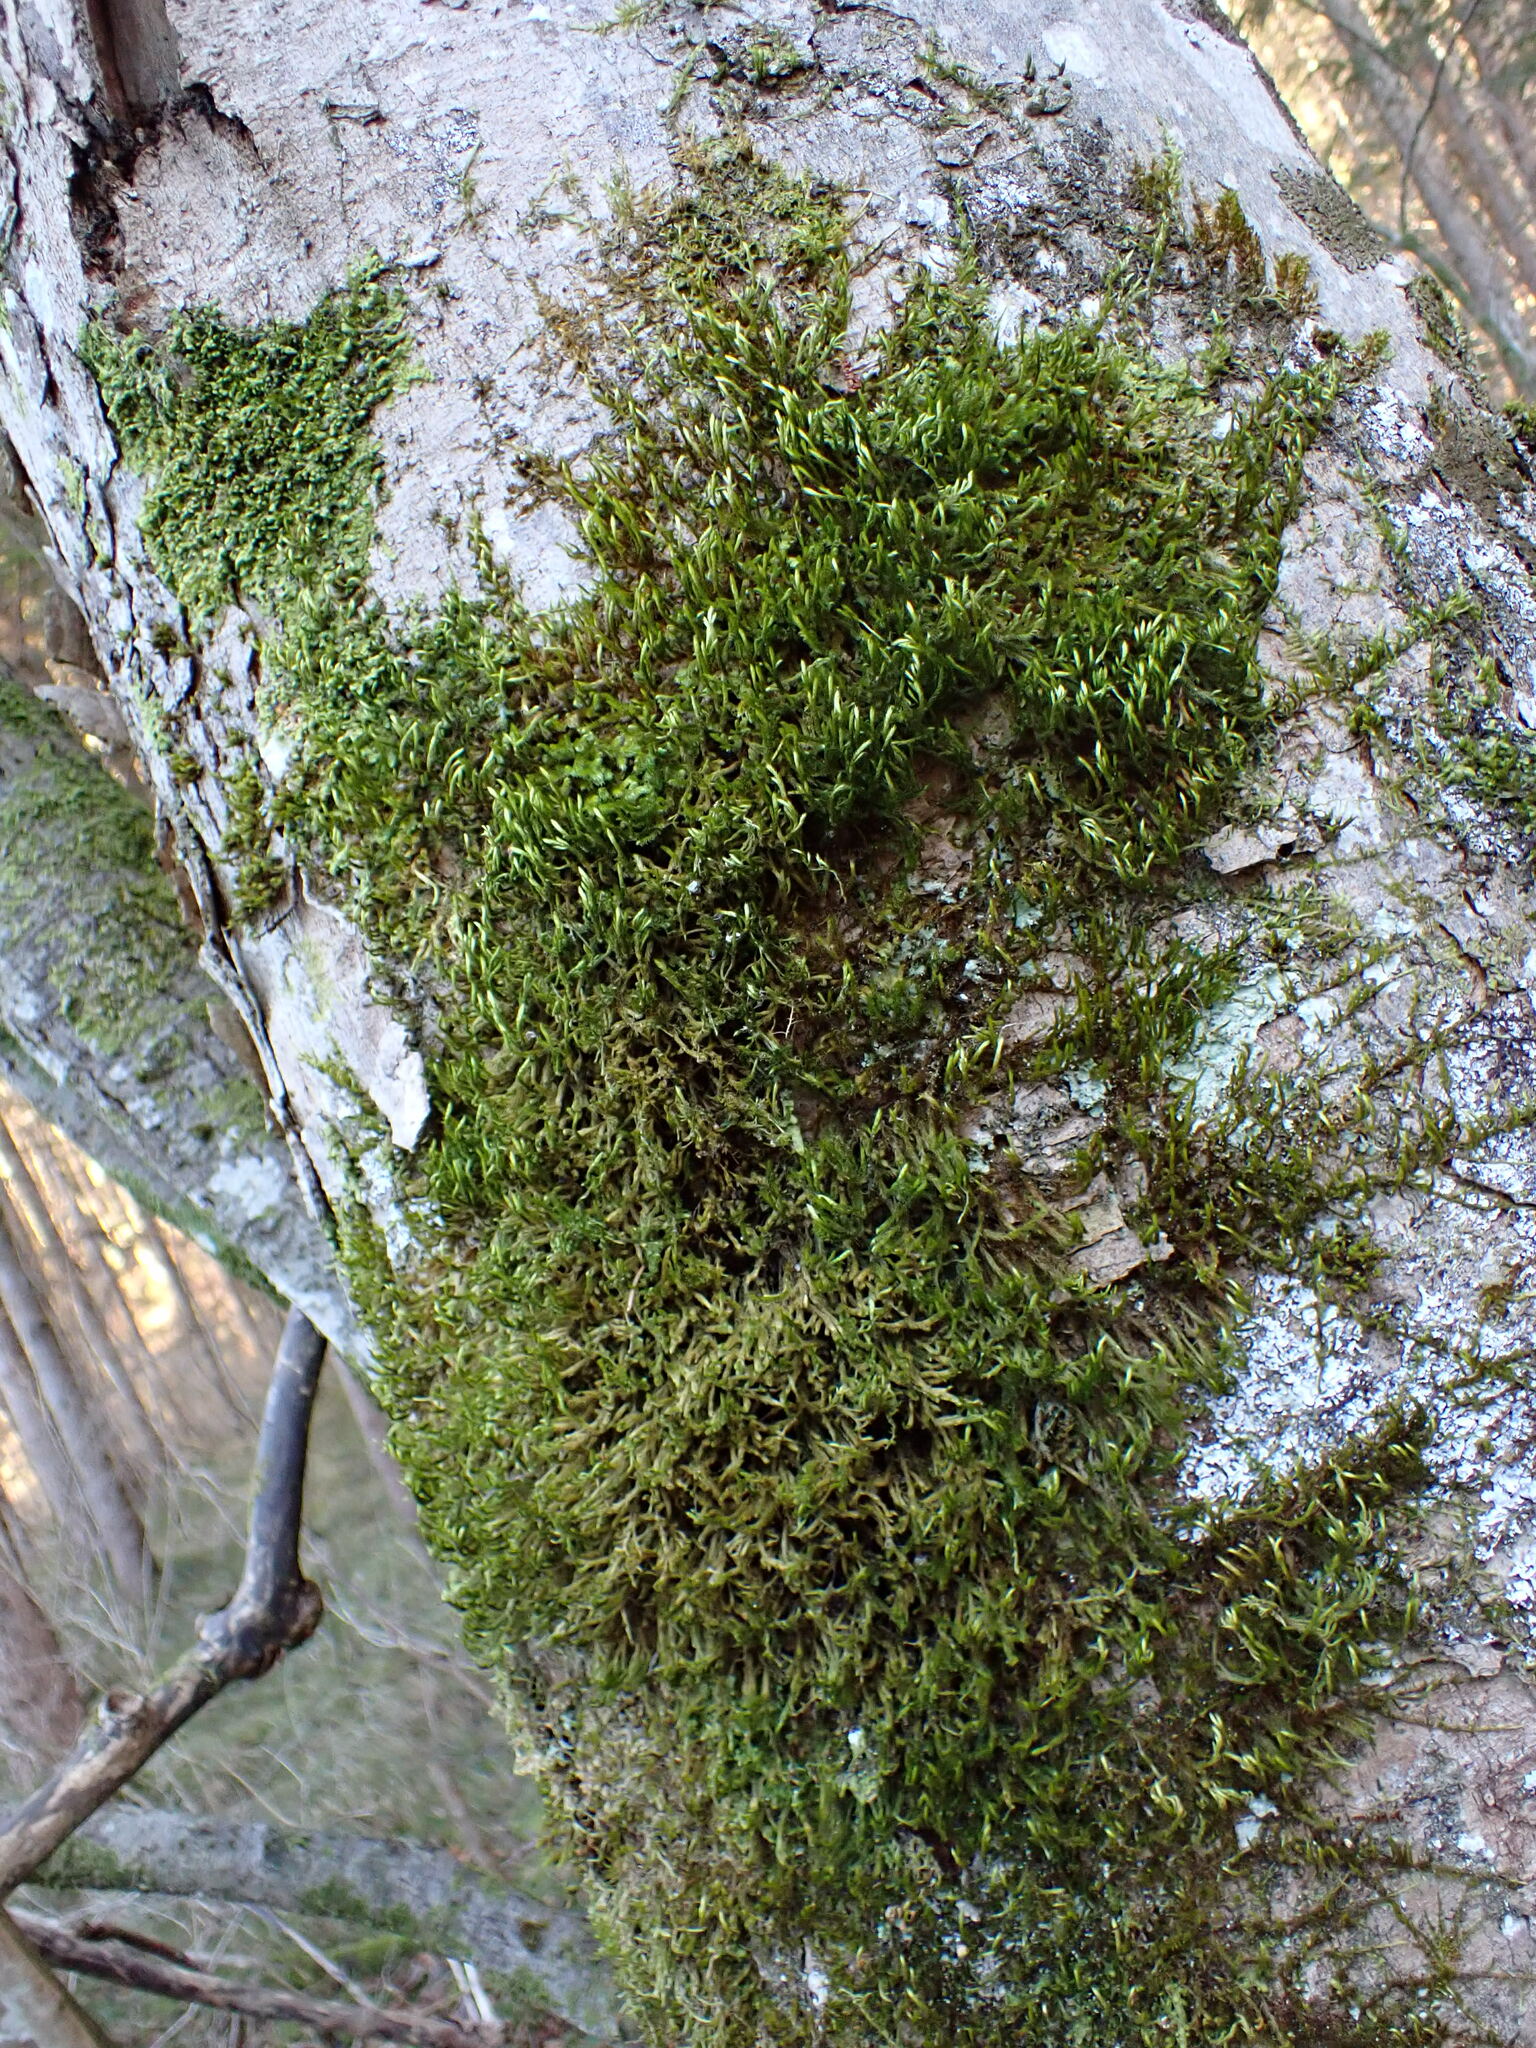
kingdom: Plantae
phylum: Bryophyta
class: Bryopsida
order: Hypnales
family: Leucodontaceae
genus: Leucodon
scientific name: Leucodon sciuroides
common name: Squirrel-tail moss
